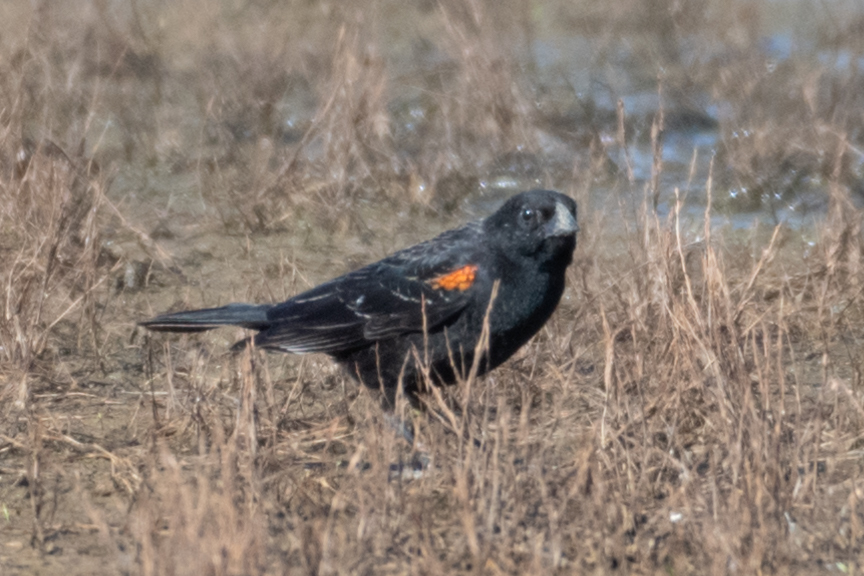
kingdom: Animalia
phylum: Chordata
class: Aves
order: Passeriformes
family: Icteridae
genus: Agelaius
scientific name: Agelaius phoeniceus
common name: Red-winged blackbird
